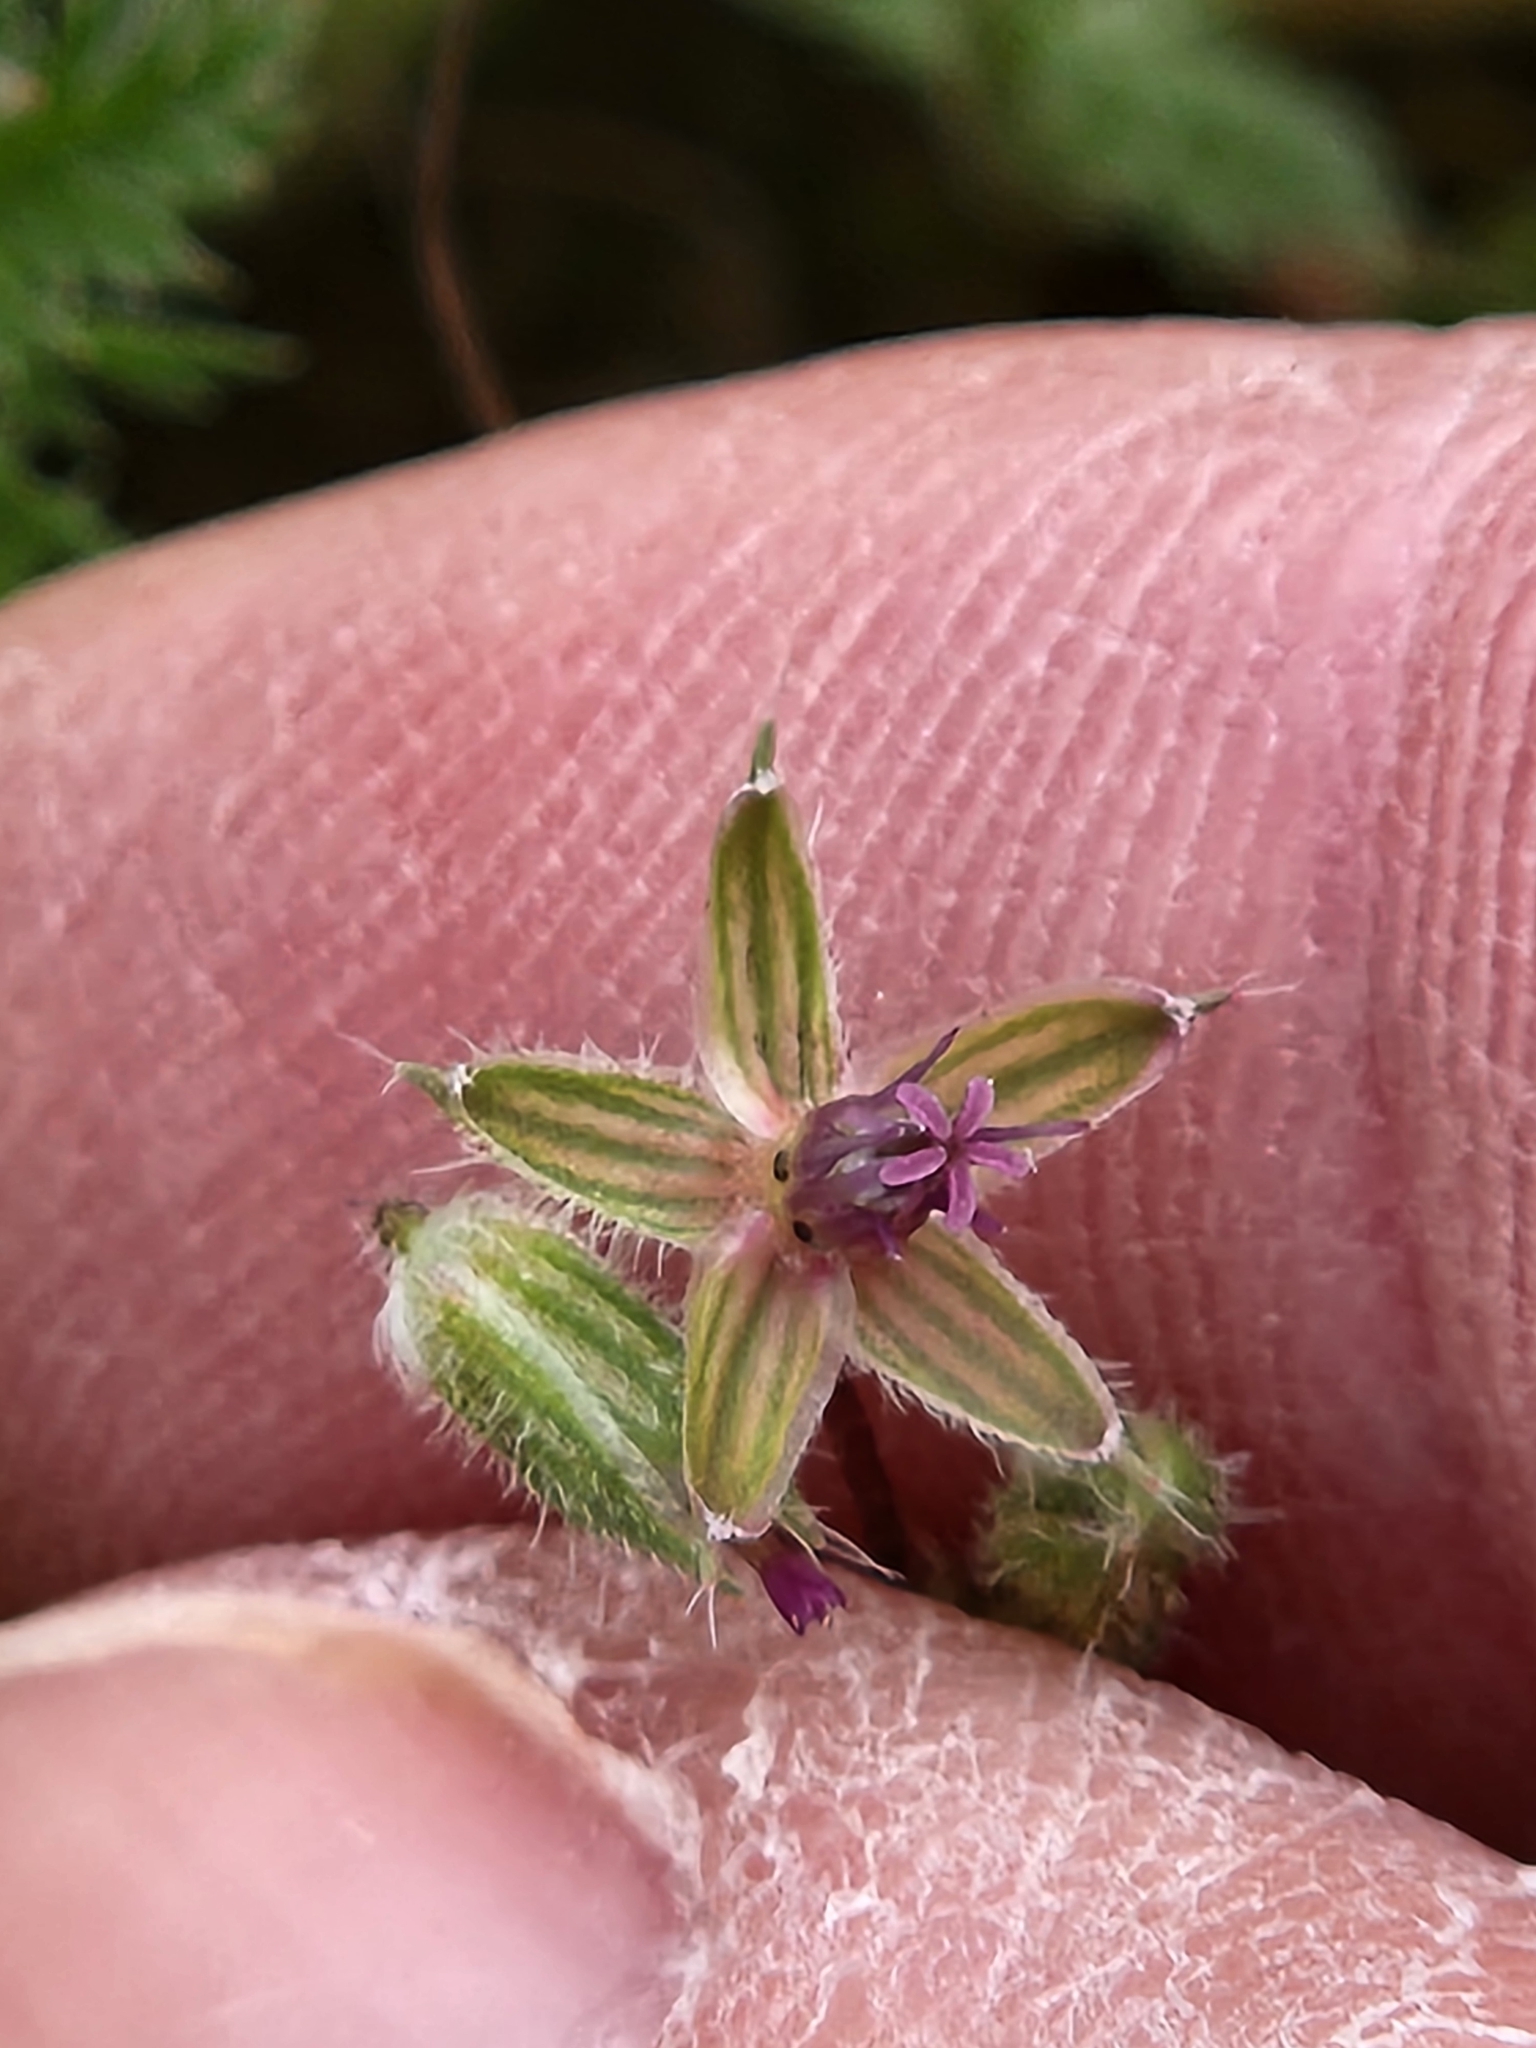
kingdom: Plantae
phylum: Tracheophyta
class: Magnoliopsida
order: Geraniales
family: Geraniaceae
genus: Erodium
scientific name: Erodium cicutarium
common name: Common stork's-bill
